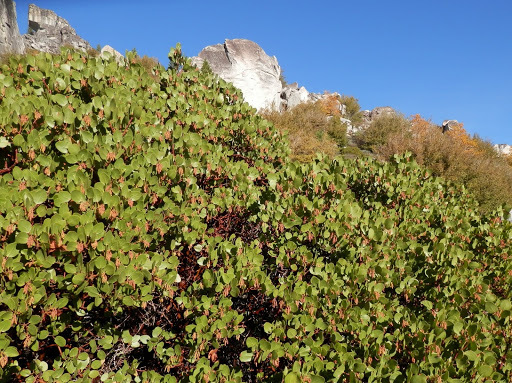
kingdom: Plantae
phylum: Tracheophyta
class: Magnoliopsida
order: Ericales
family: Ericaceae
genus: Arctostaphylos
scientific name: Arctostaphylos patula
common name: Green-leaf manzanita
